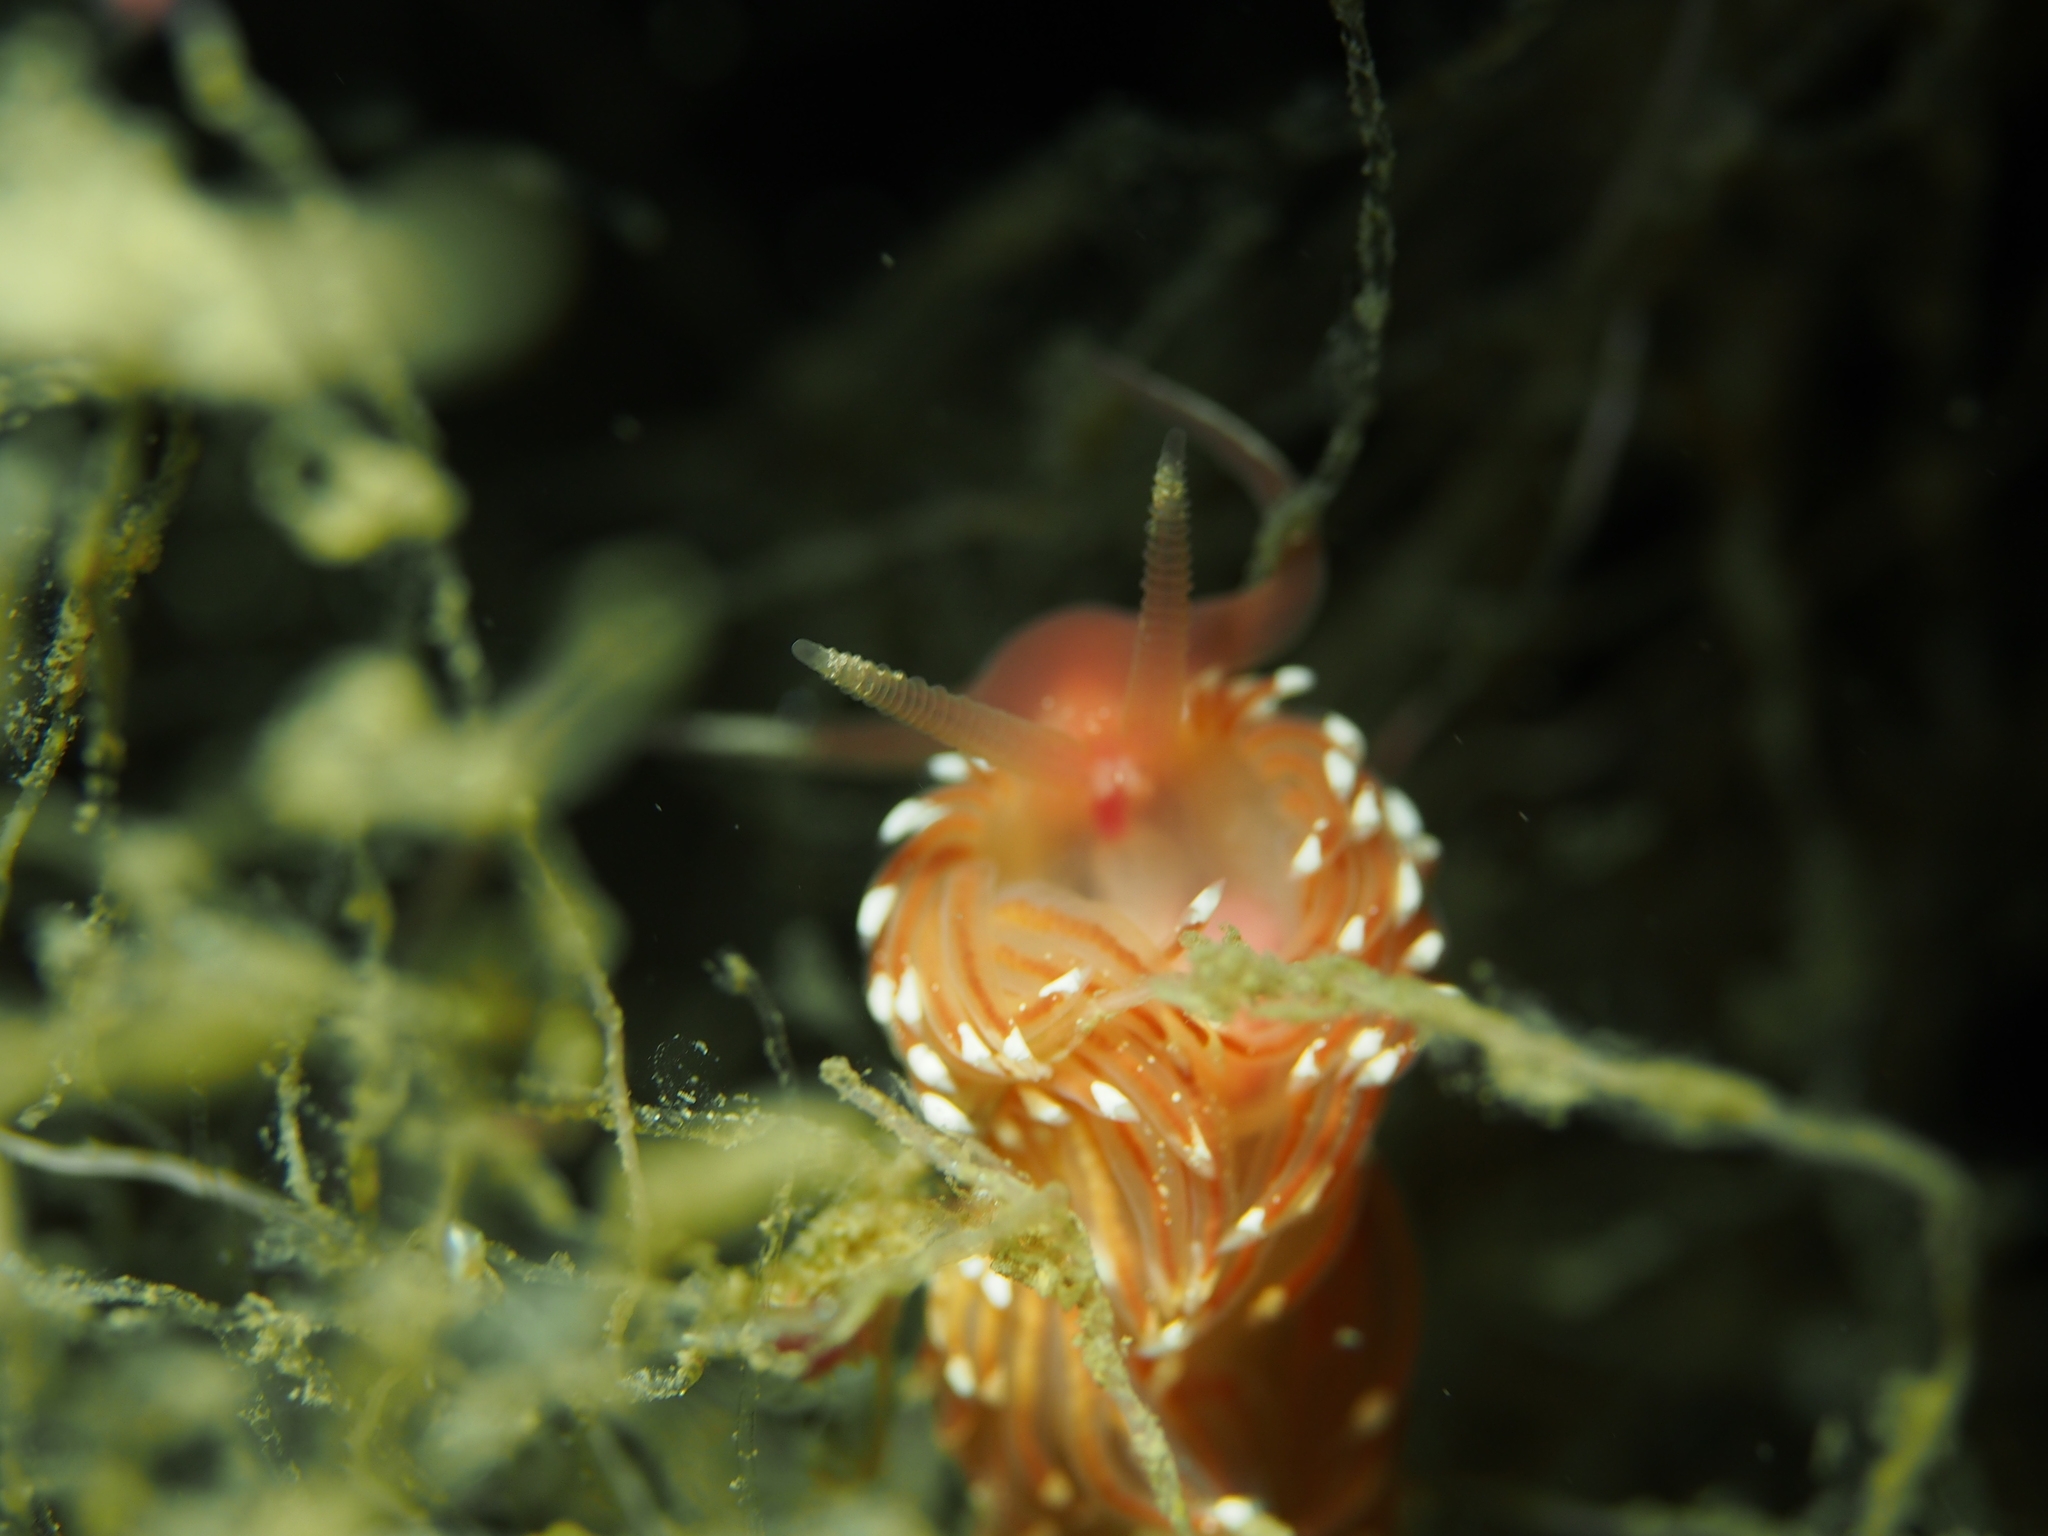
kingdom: Animalia
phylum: Mollusca
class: Gastropoda
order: Nudibranchia
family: Facelinidae
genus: Facelina
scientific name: Facelina bostoniensis
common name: Boston facelina
